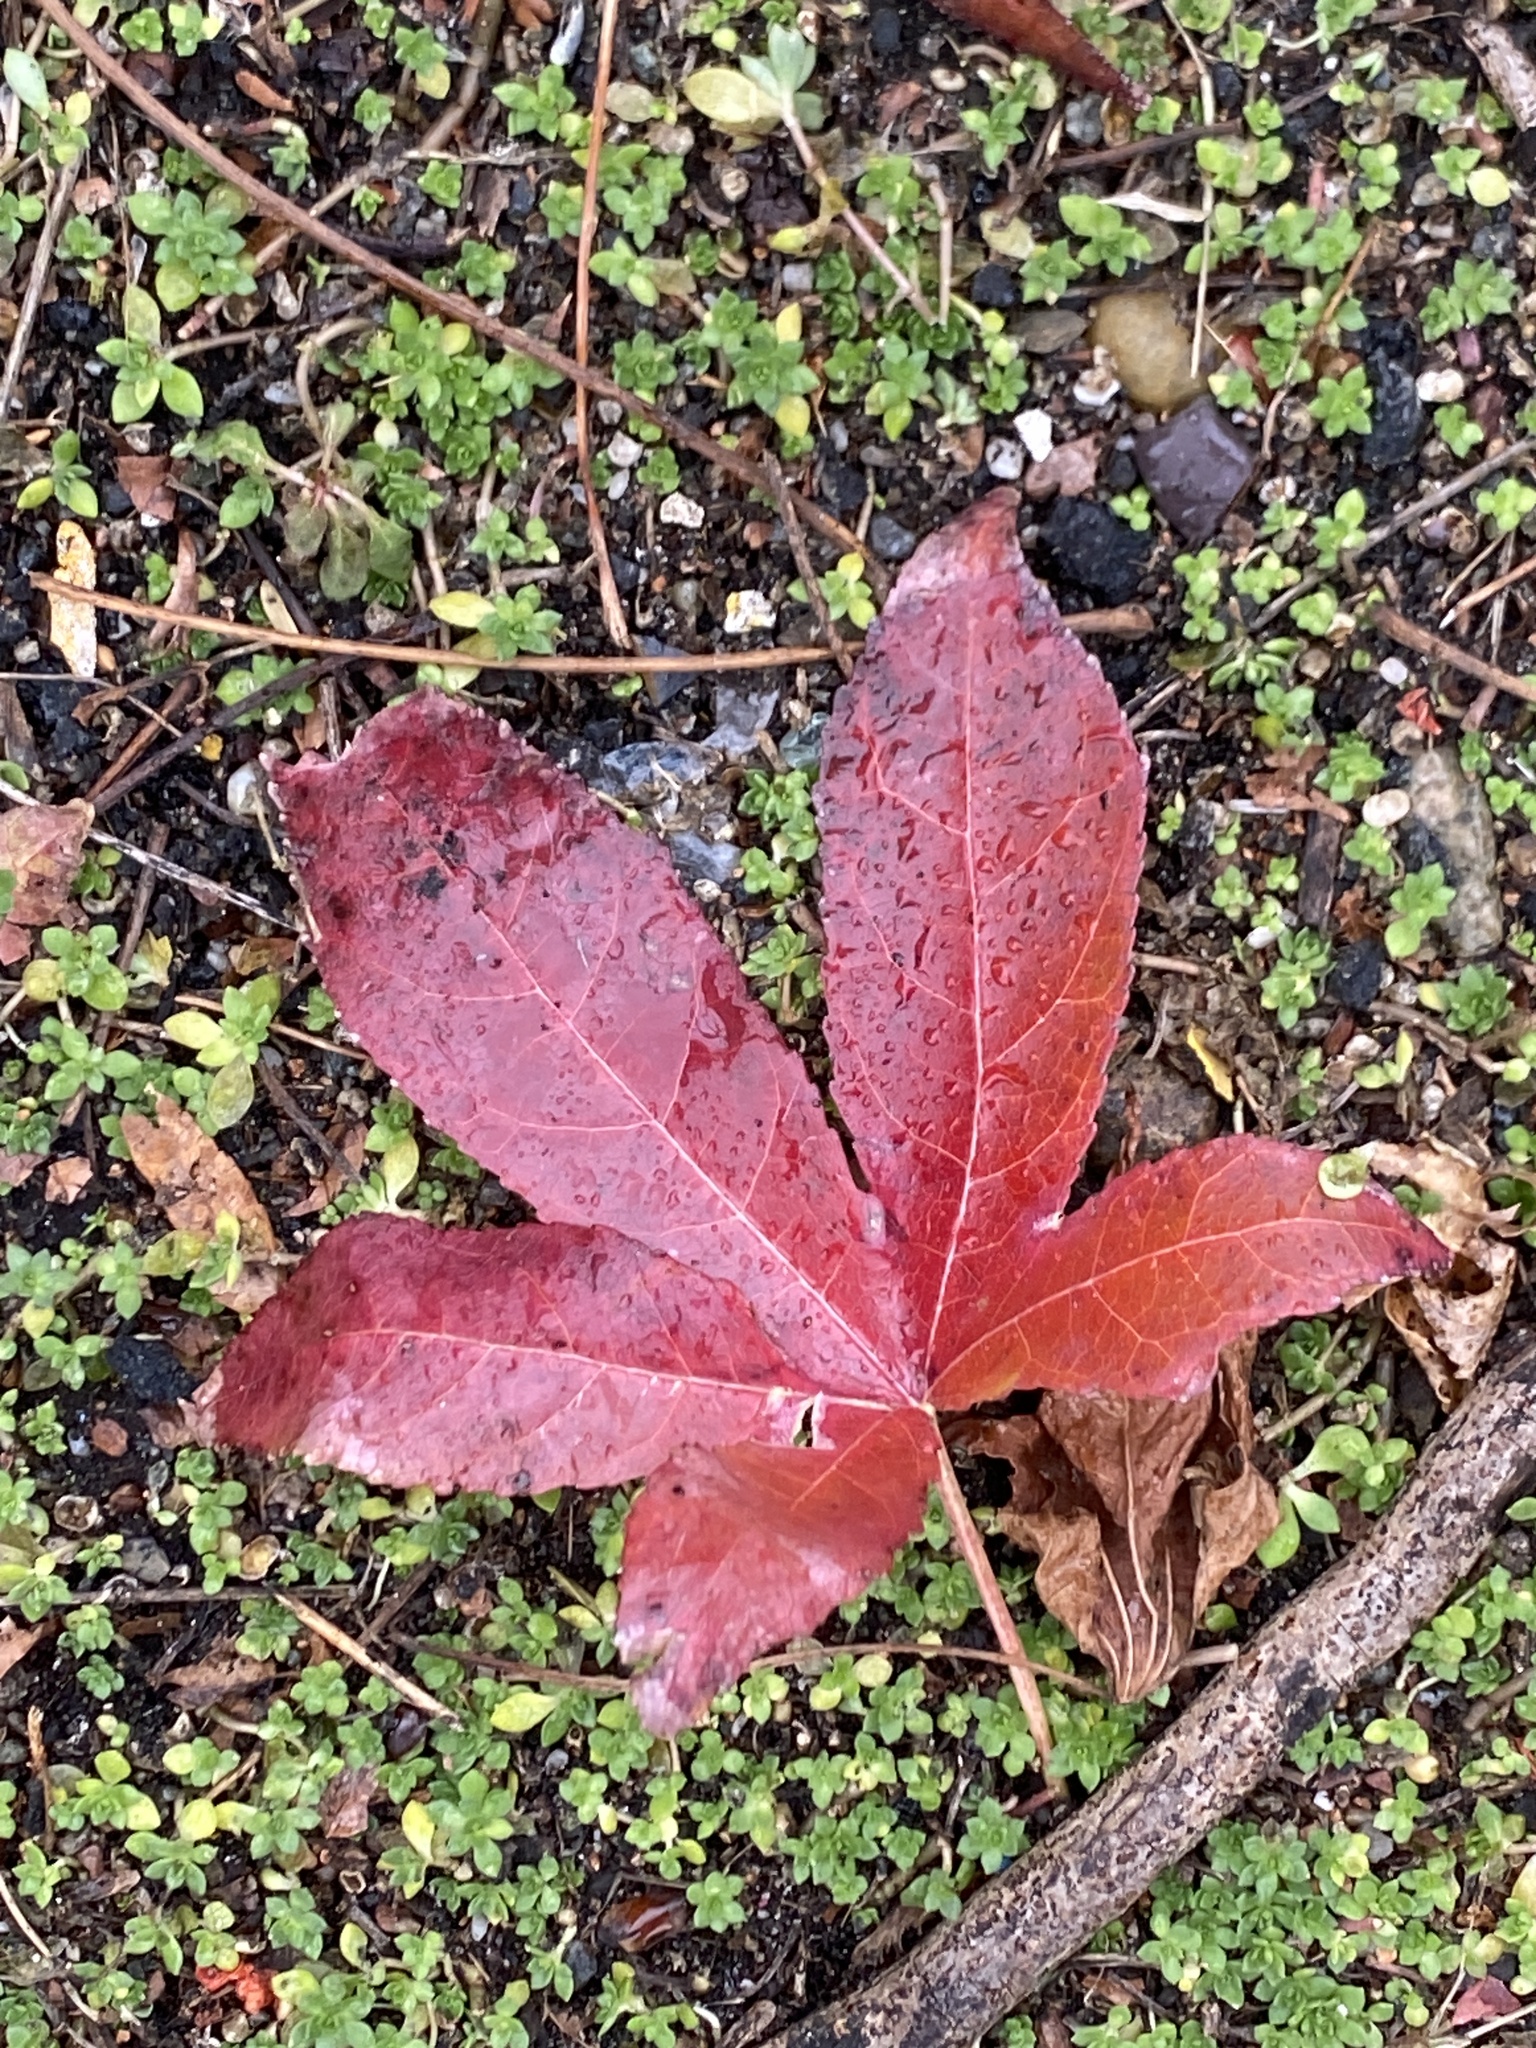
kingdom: Plantae
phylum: Tracheophyta
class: Magnoliopsida
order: Saxifragales
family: Altingiaceae
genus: Liquidambar
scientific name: Liquidambar styraciflua
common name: Sweet gum
